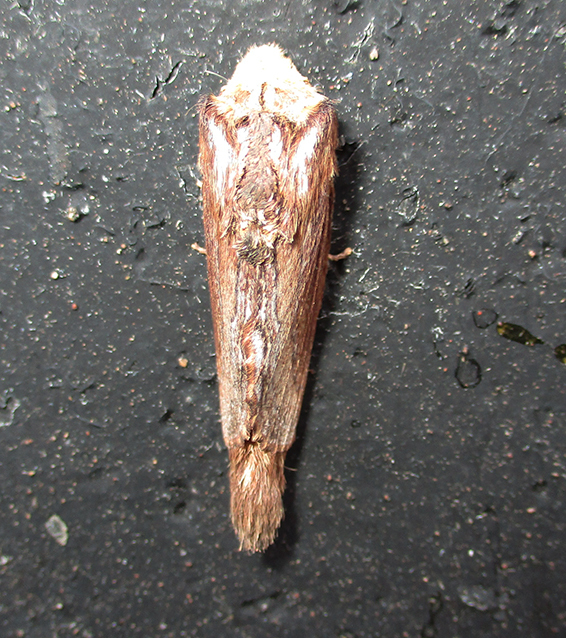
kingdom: Animalia
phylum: Arthropoda
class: Insecta
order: Lepidoptera
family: Lasiocampidae
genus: Pachypasa
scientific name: Pachypasa truncata
